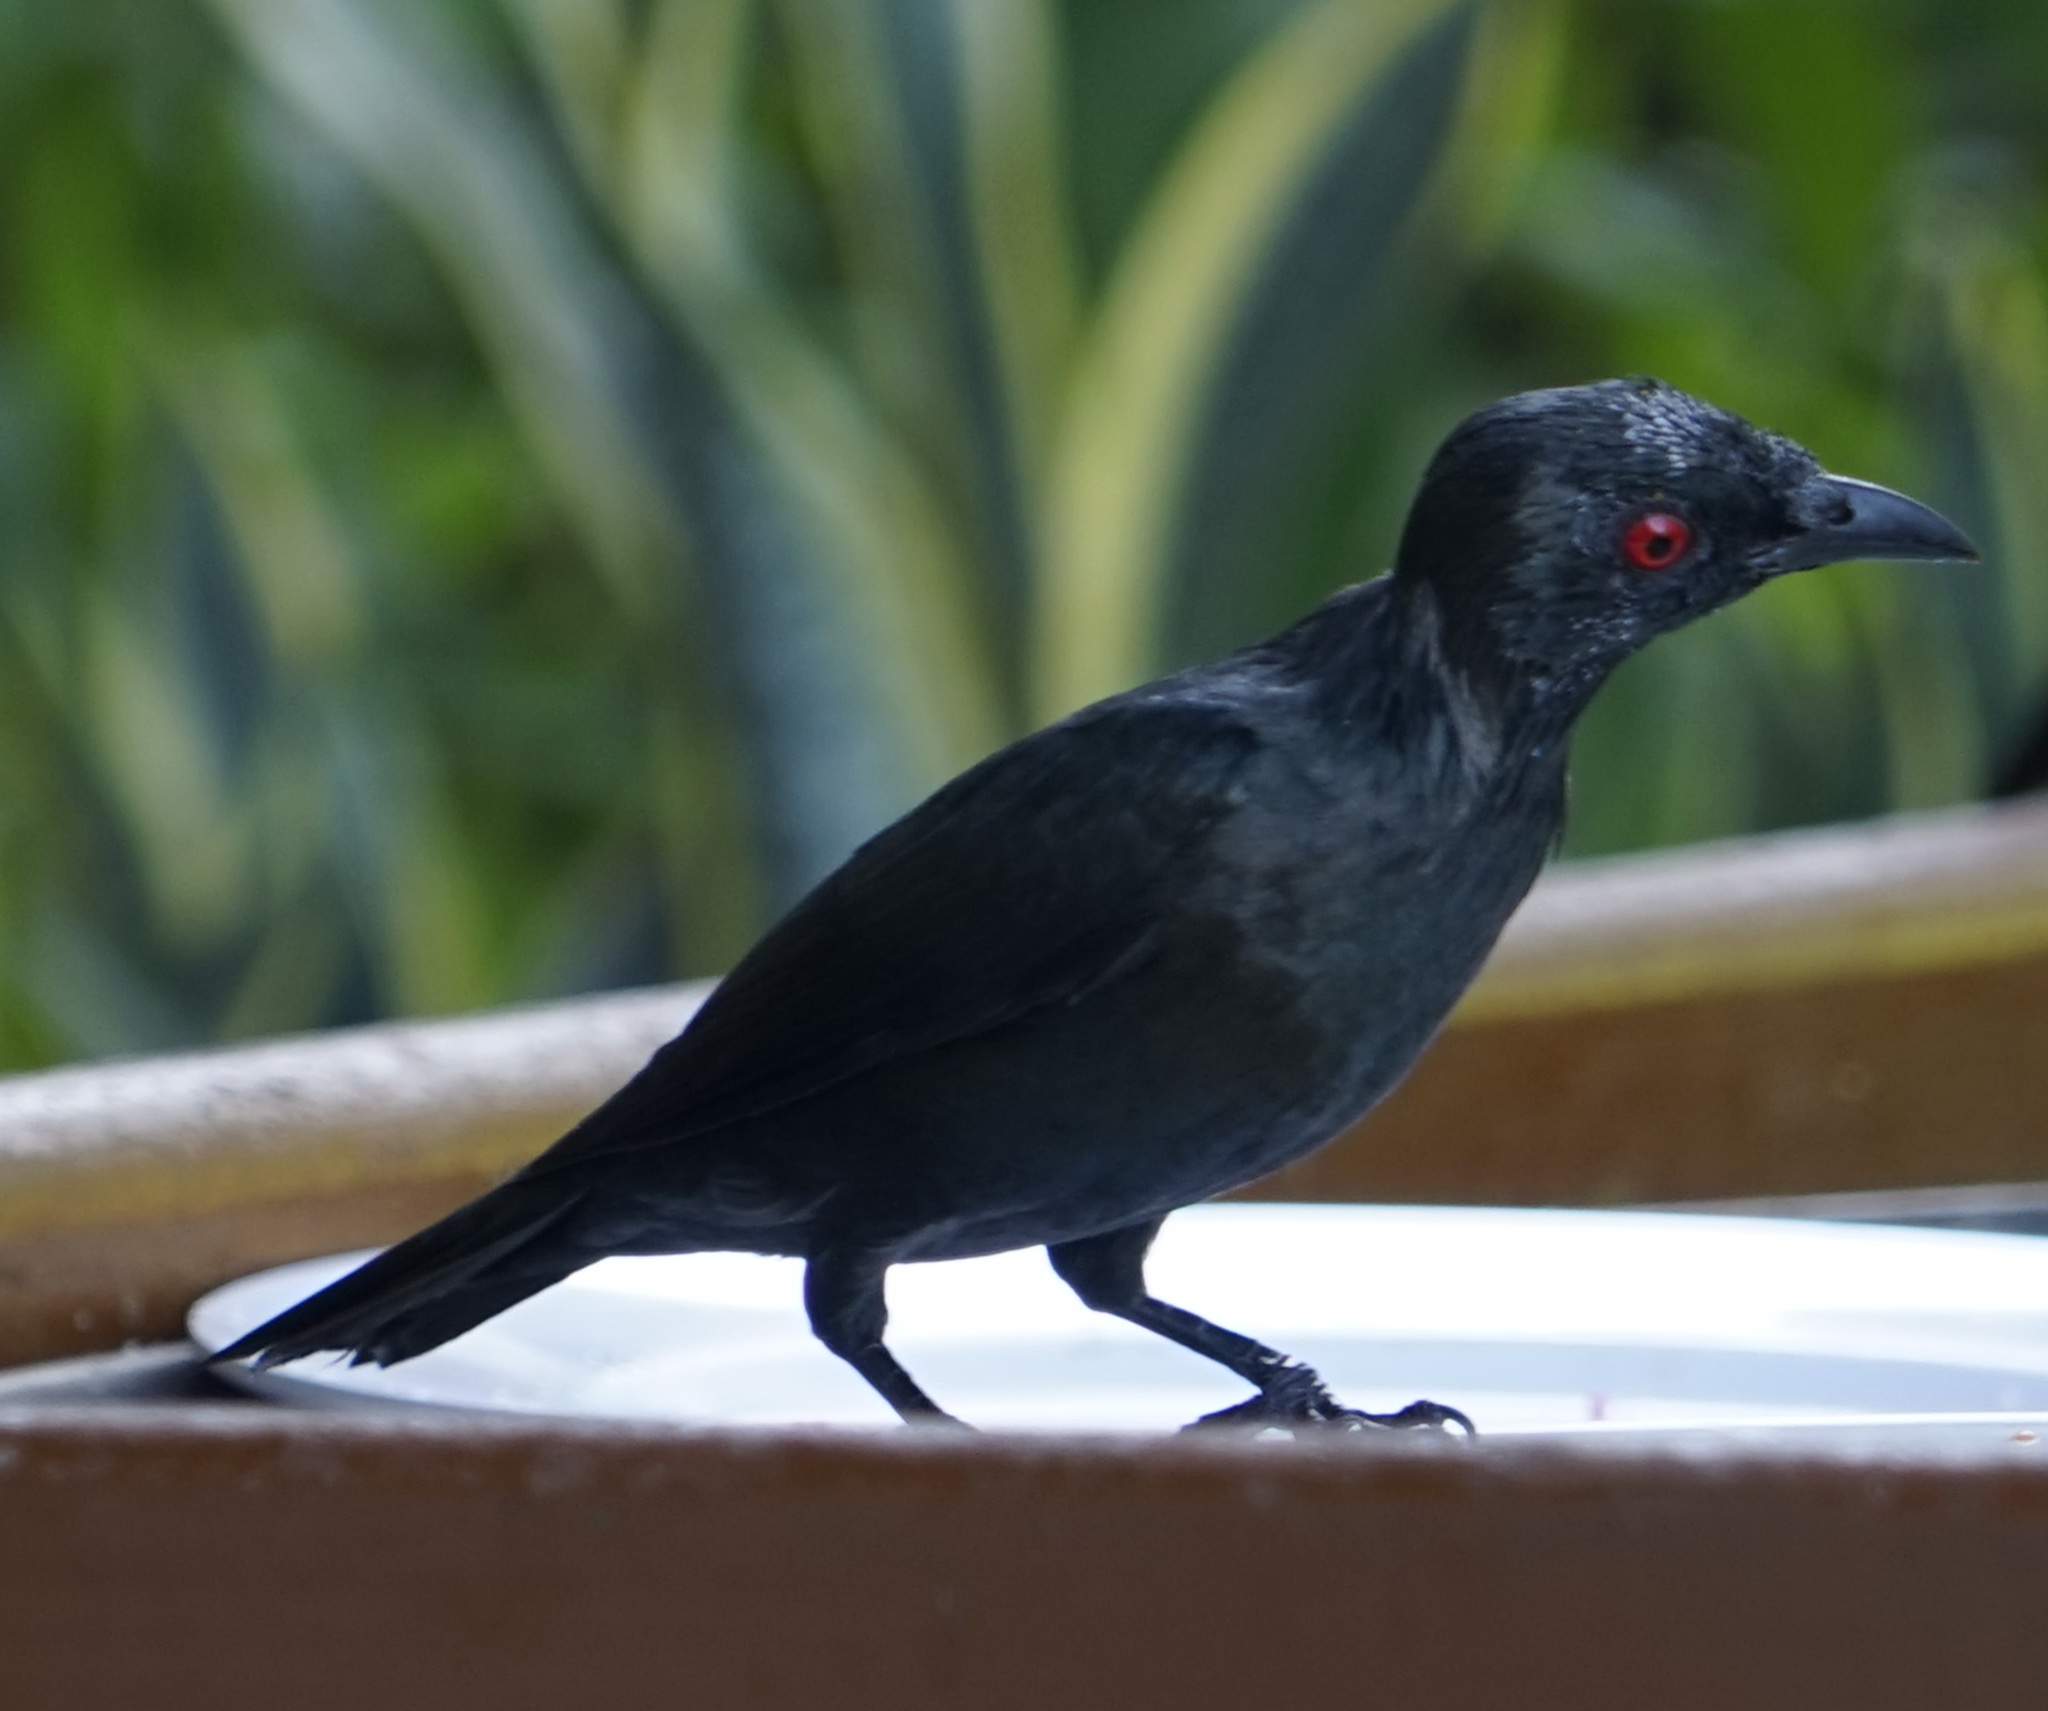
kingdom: Animalia
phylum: Chordata
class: Aves
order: Passeriformes
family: Sturnidae
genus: Aplonis
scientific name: Aplonis panayensis
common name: Asian glossy starling
